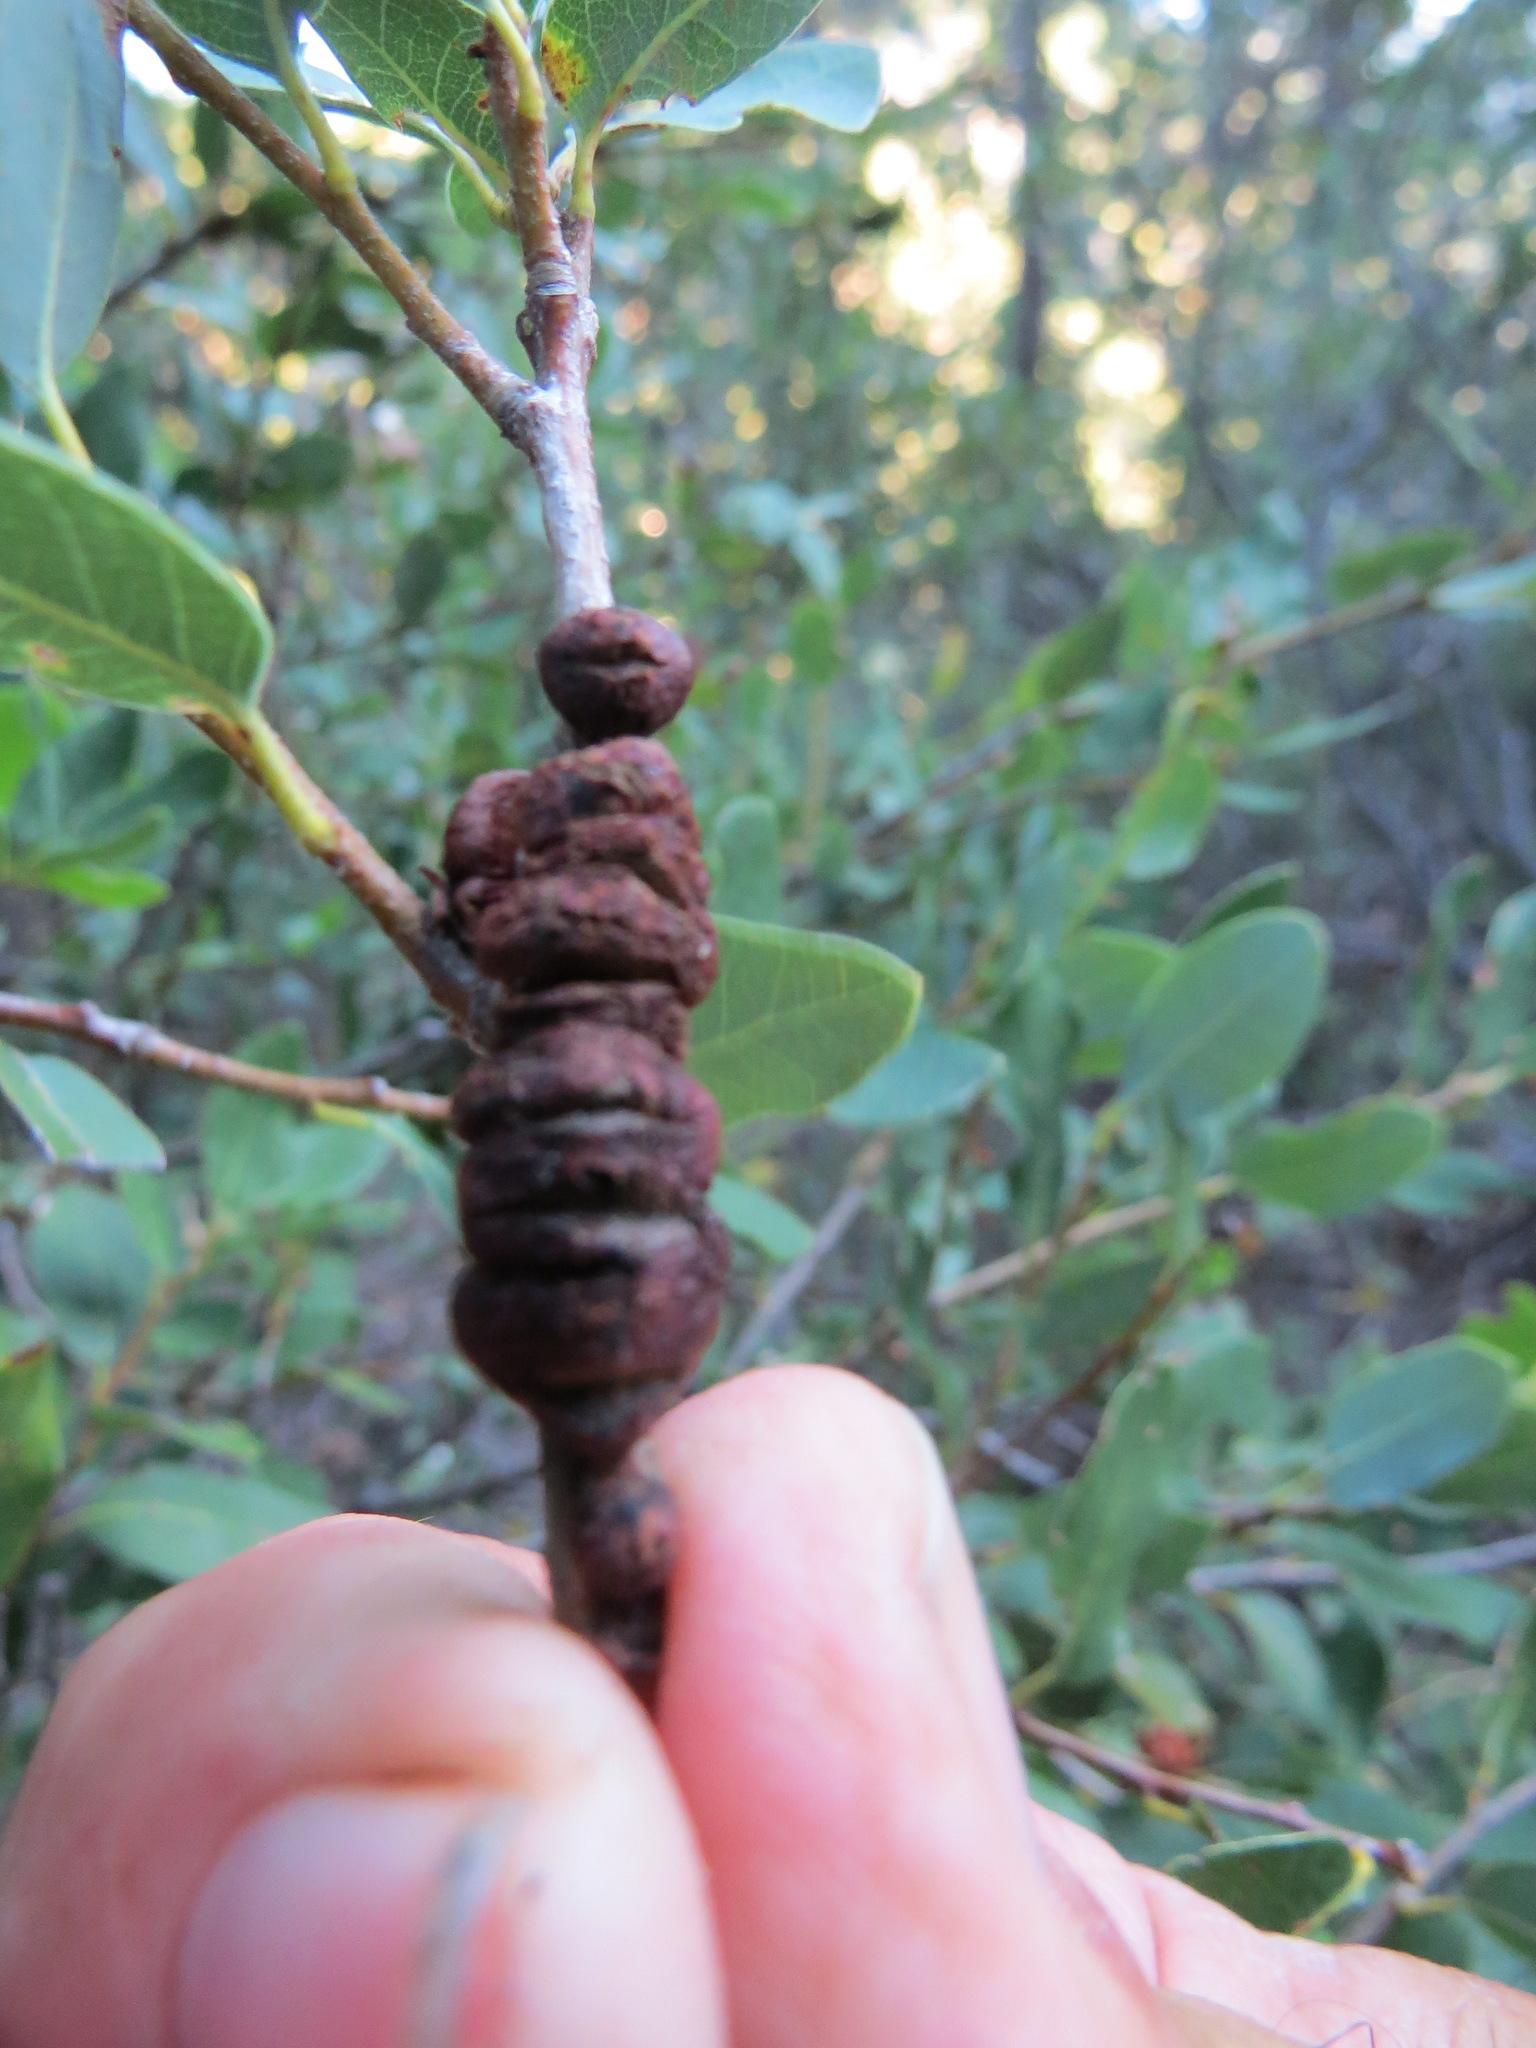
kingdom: Animalia
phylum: Arthropoda
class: Insecta
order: Hymenoptera
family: Cynipidae
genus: Disholandricus
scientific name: Disholandricus
